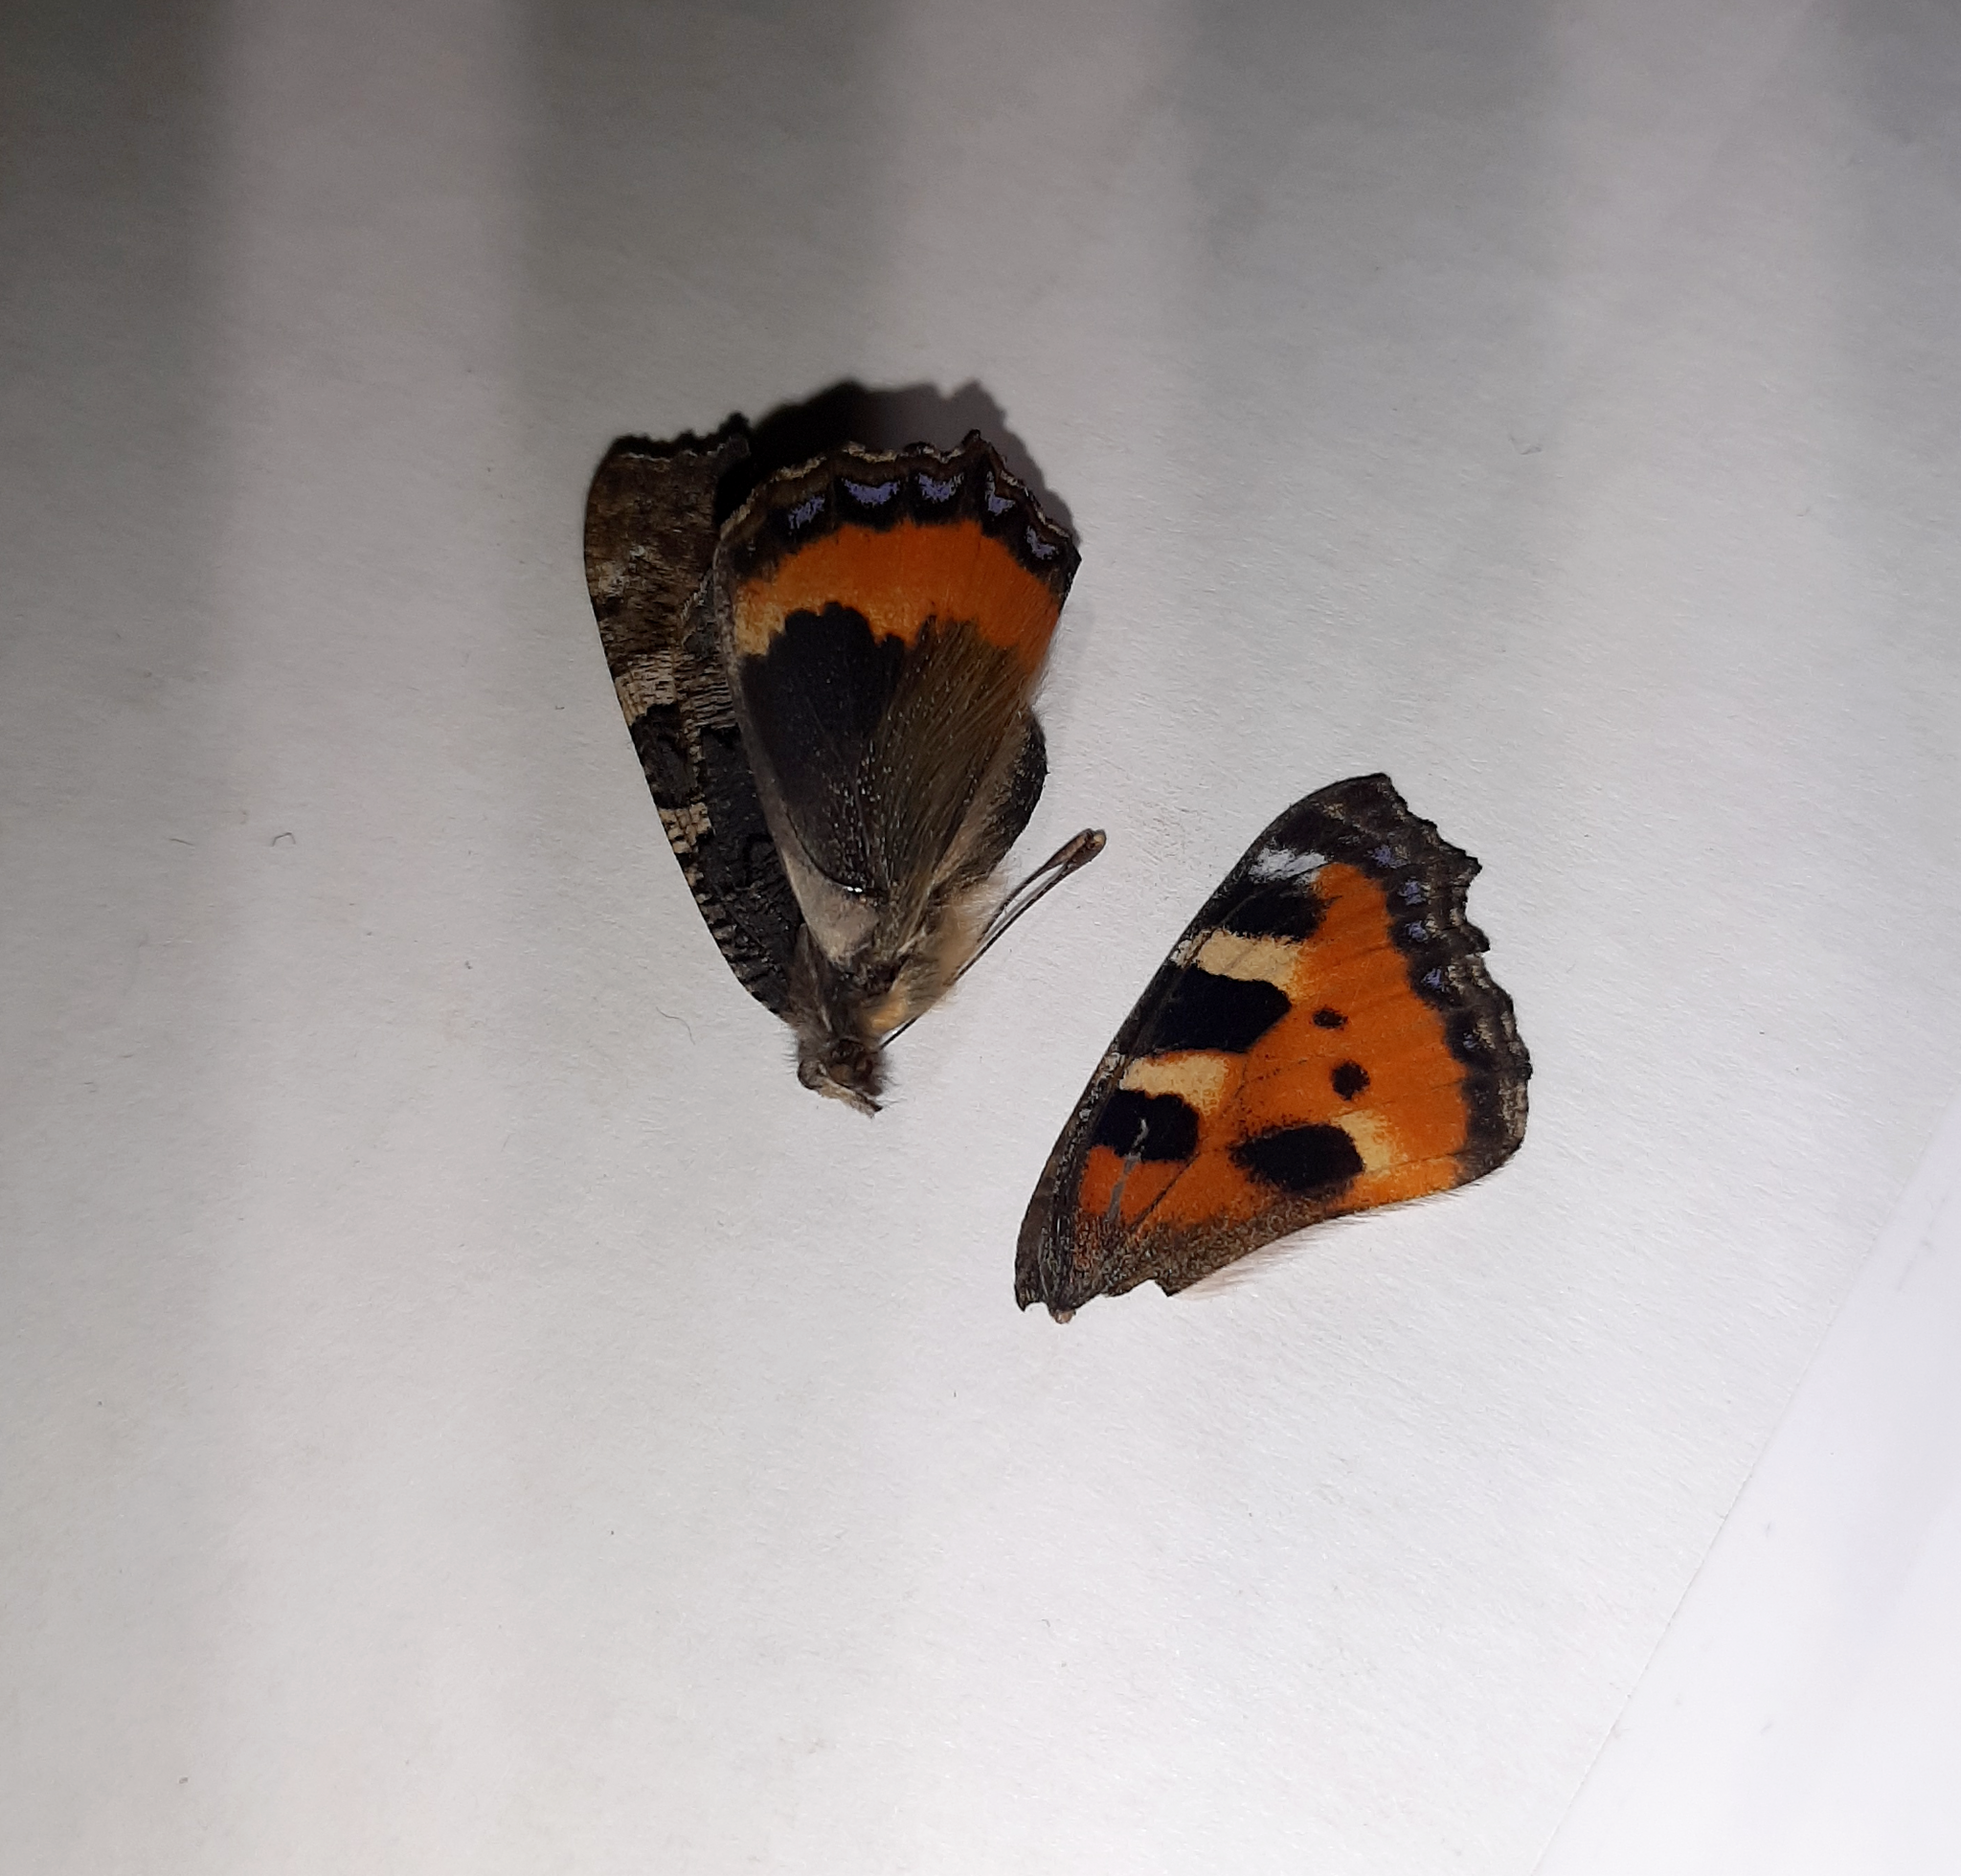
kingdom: Animalia
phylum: Arthropoda
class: Insecta
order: Lepidoptera
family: Nymphalidae
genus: Aglais
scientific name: Aglais urticae
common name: Small tortoiseshell
